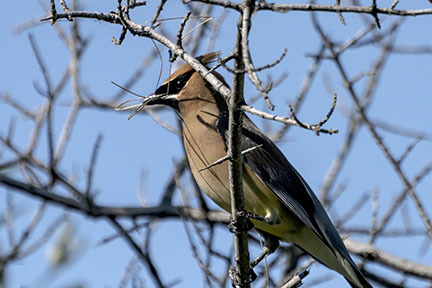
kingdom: Animalia
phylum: Chordata
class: Aves
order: Passeriformes
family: Bombycillidae
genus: Bombycilla
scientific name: Bombycilla cedrorum
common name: Cedar waxwing
